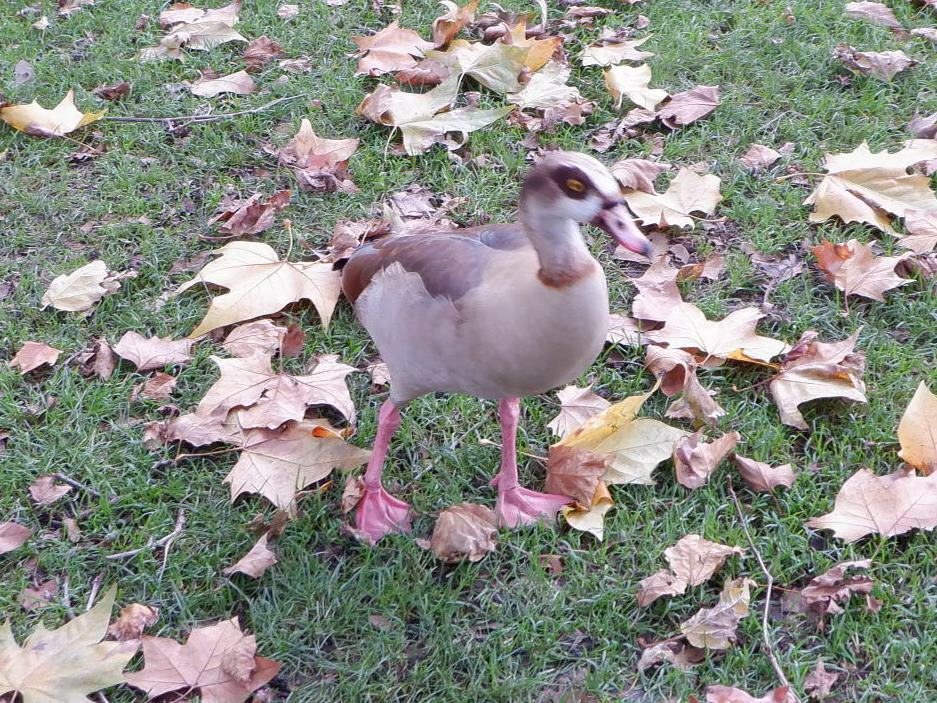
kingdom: Animalia
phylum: Chordata
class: Aves
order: Anseriformes
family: Anatidae
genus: Alopochen
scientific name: Alopochen aegyptiaca
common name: Egyptian goose
